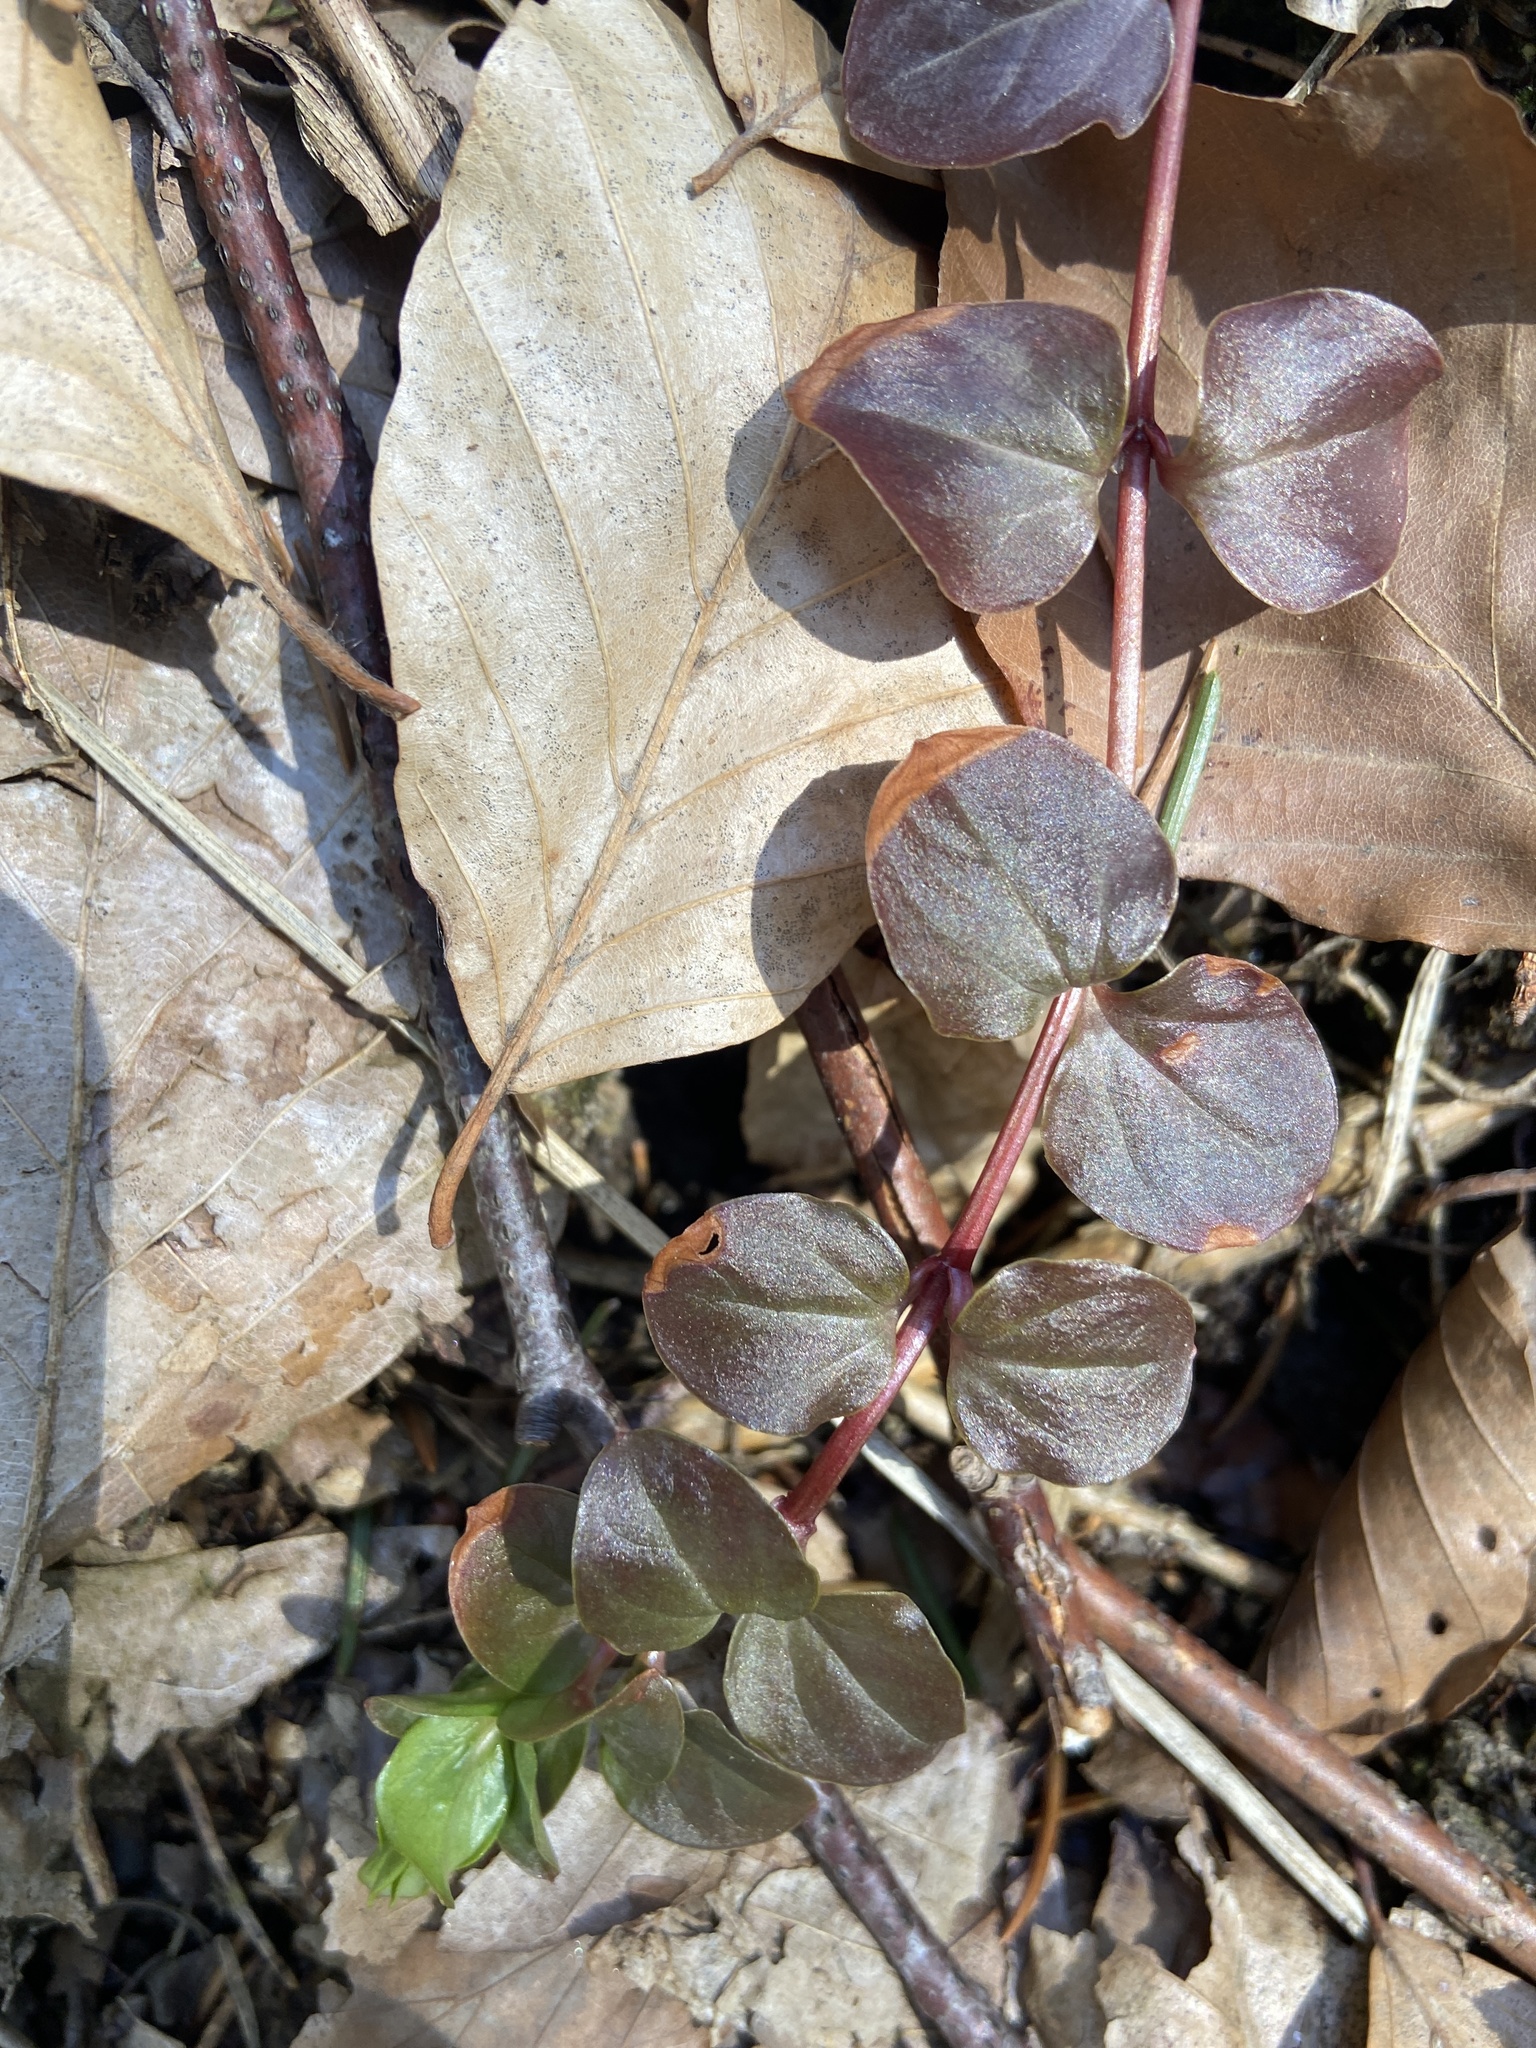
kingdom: Plantae
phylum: Tracheophyta
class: Magnoliopsida
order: Ericales
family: Primulaceae
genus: Lysimachia
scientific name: Lysimachia nummularia
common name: Moneywort
